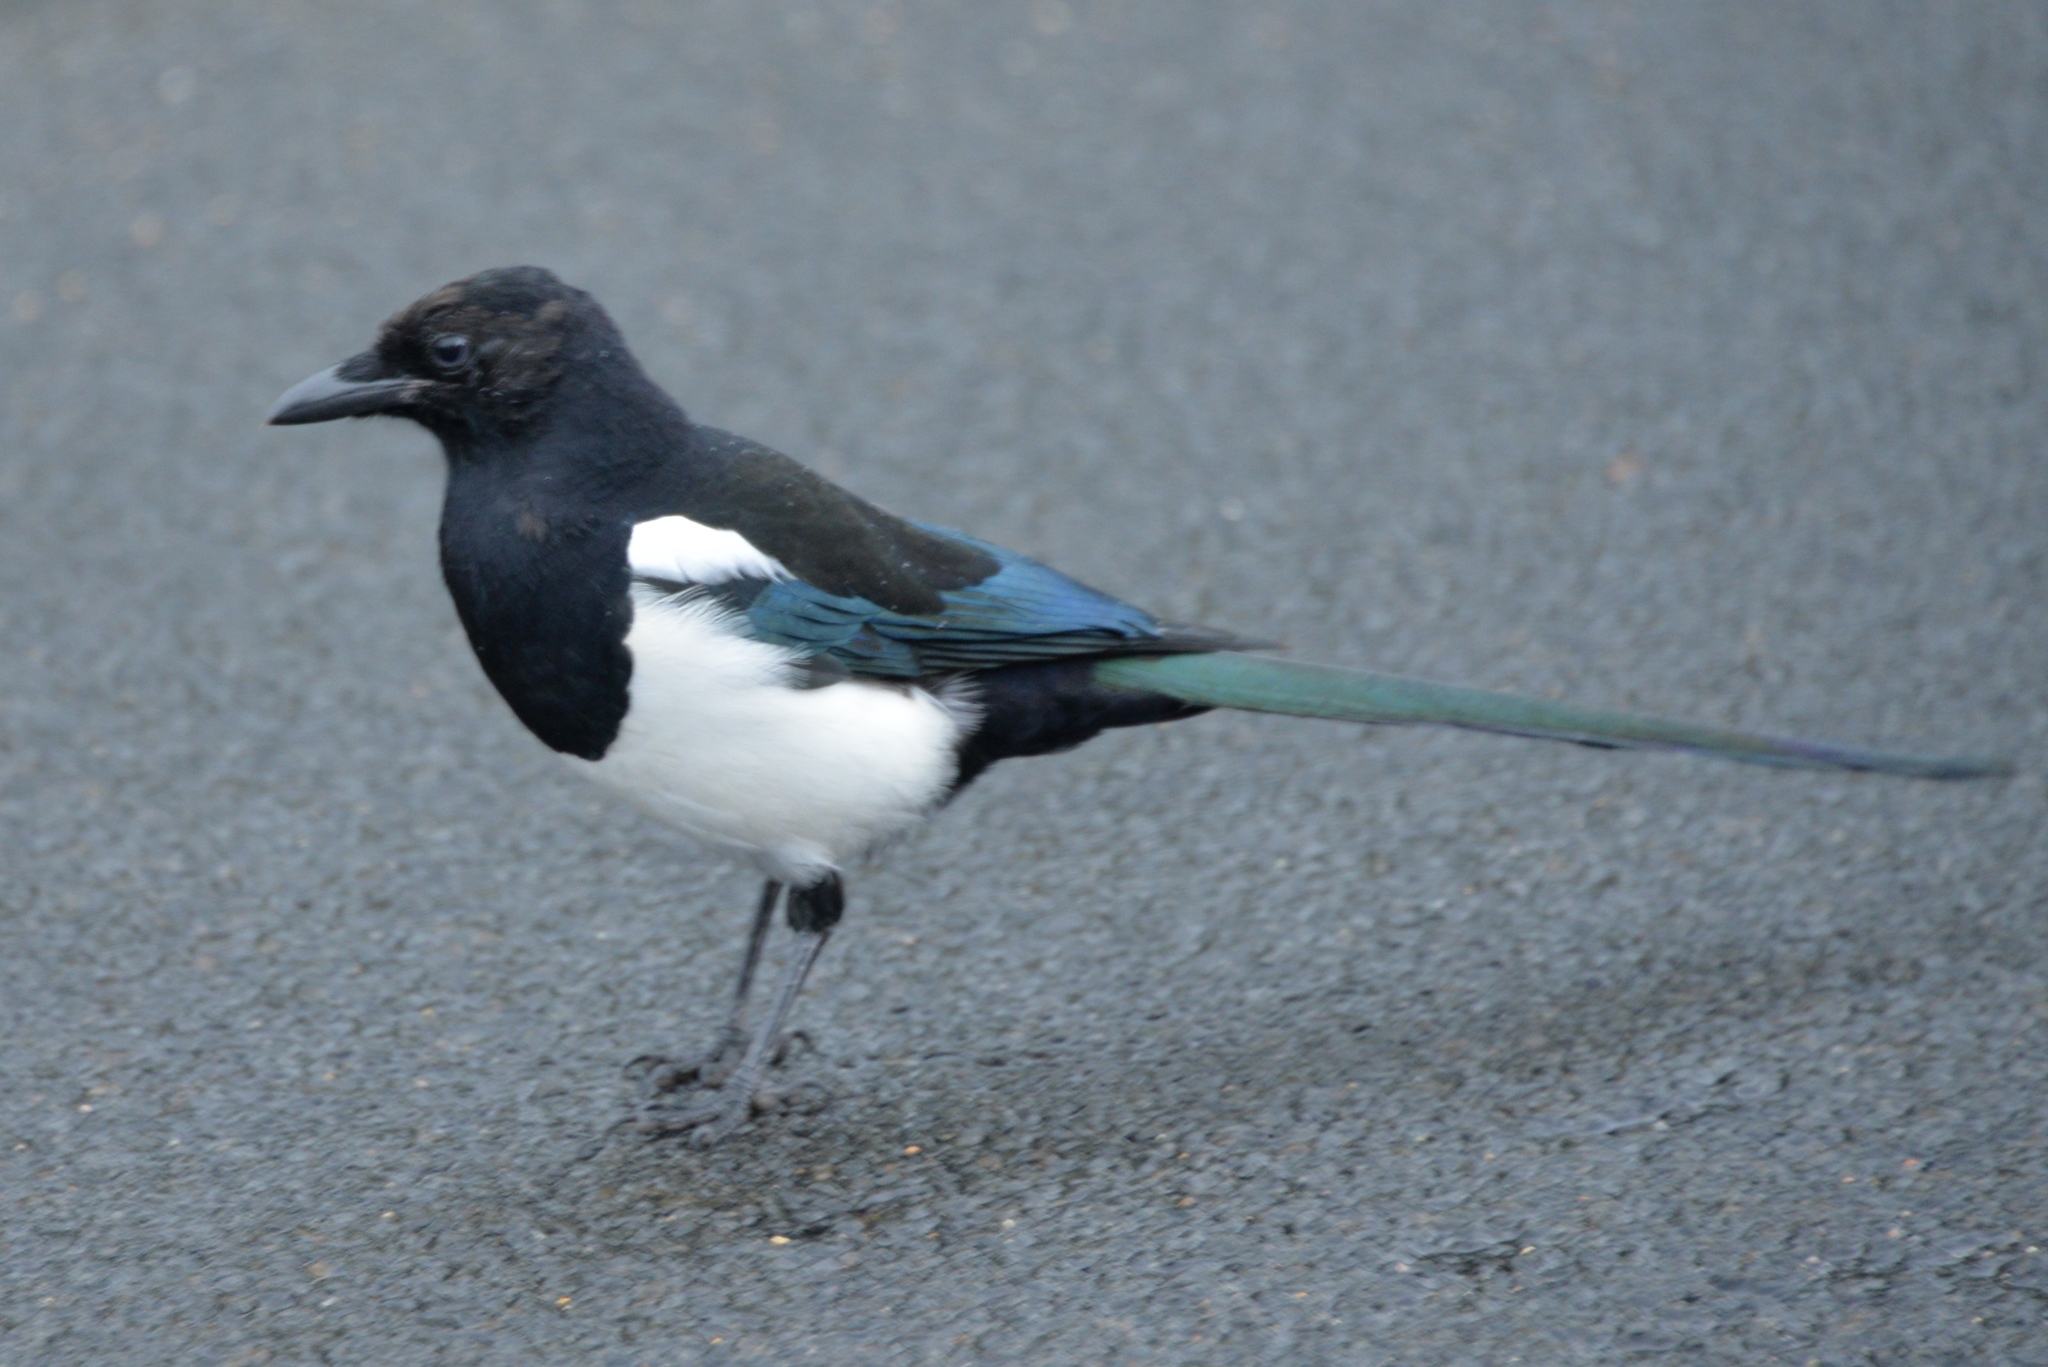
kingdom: Animalia
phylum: Chordata
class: Aves
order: Passeriformes
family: Corvidae
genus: Pica
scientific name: Pica hudsonia
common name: Black-billed magpie
